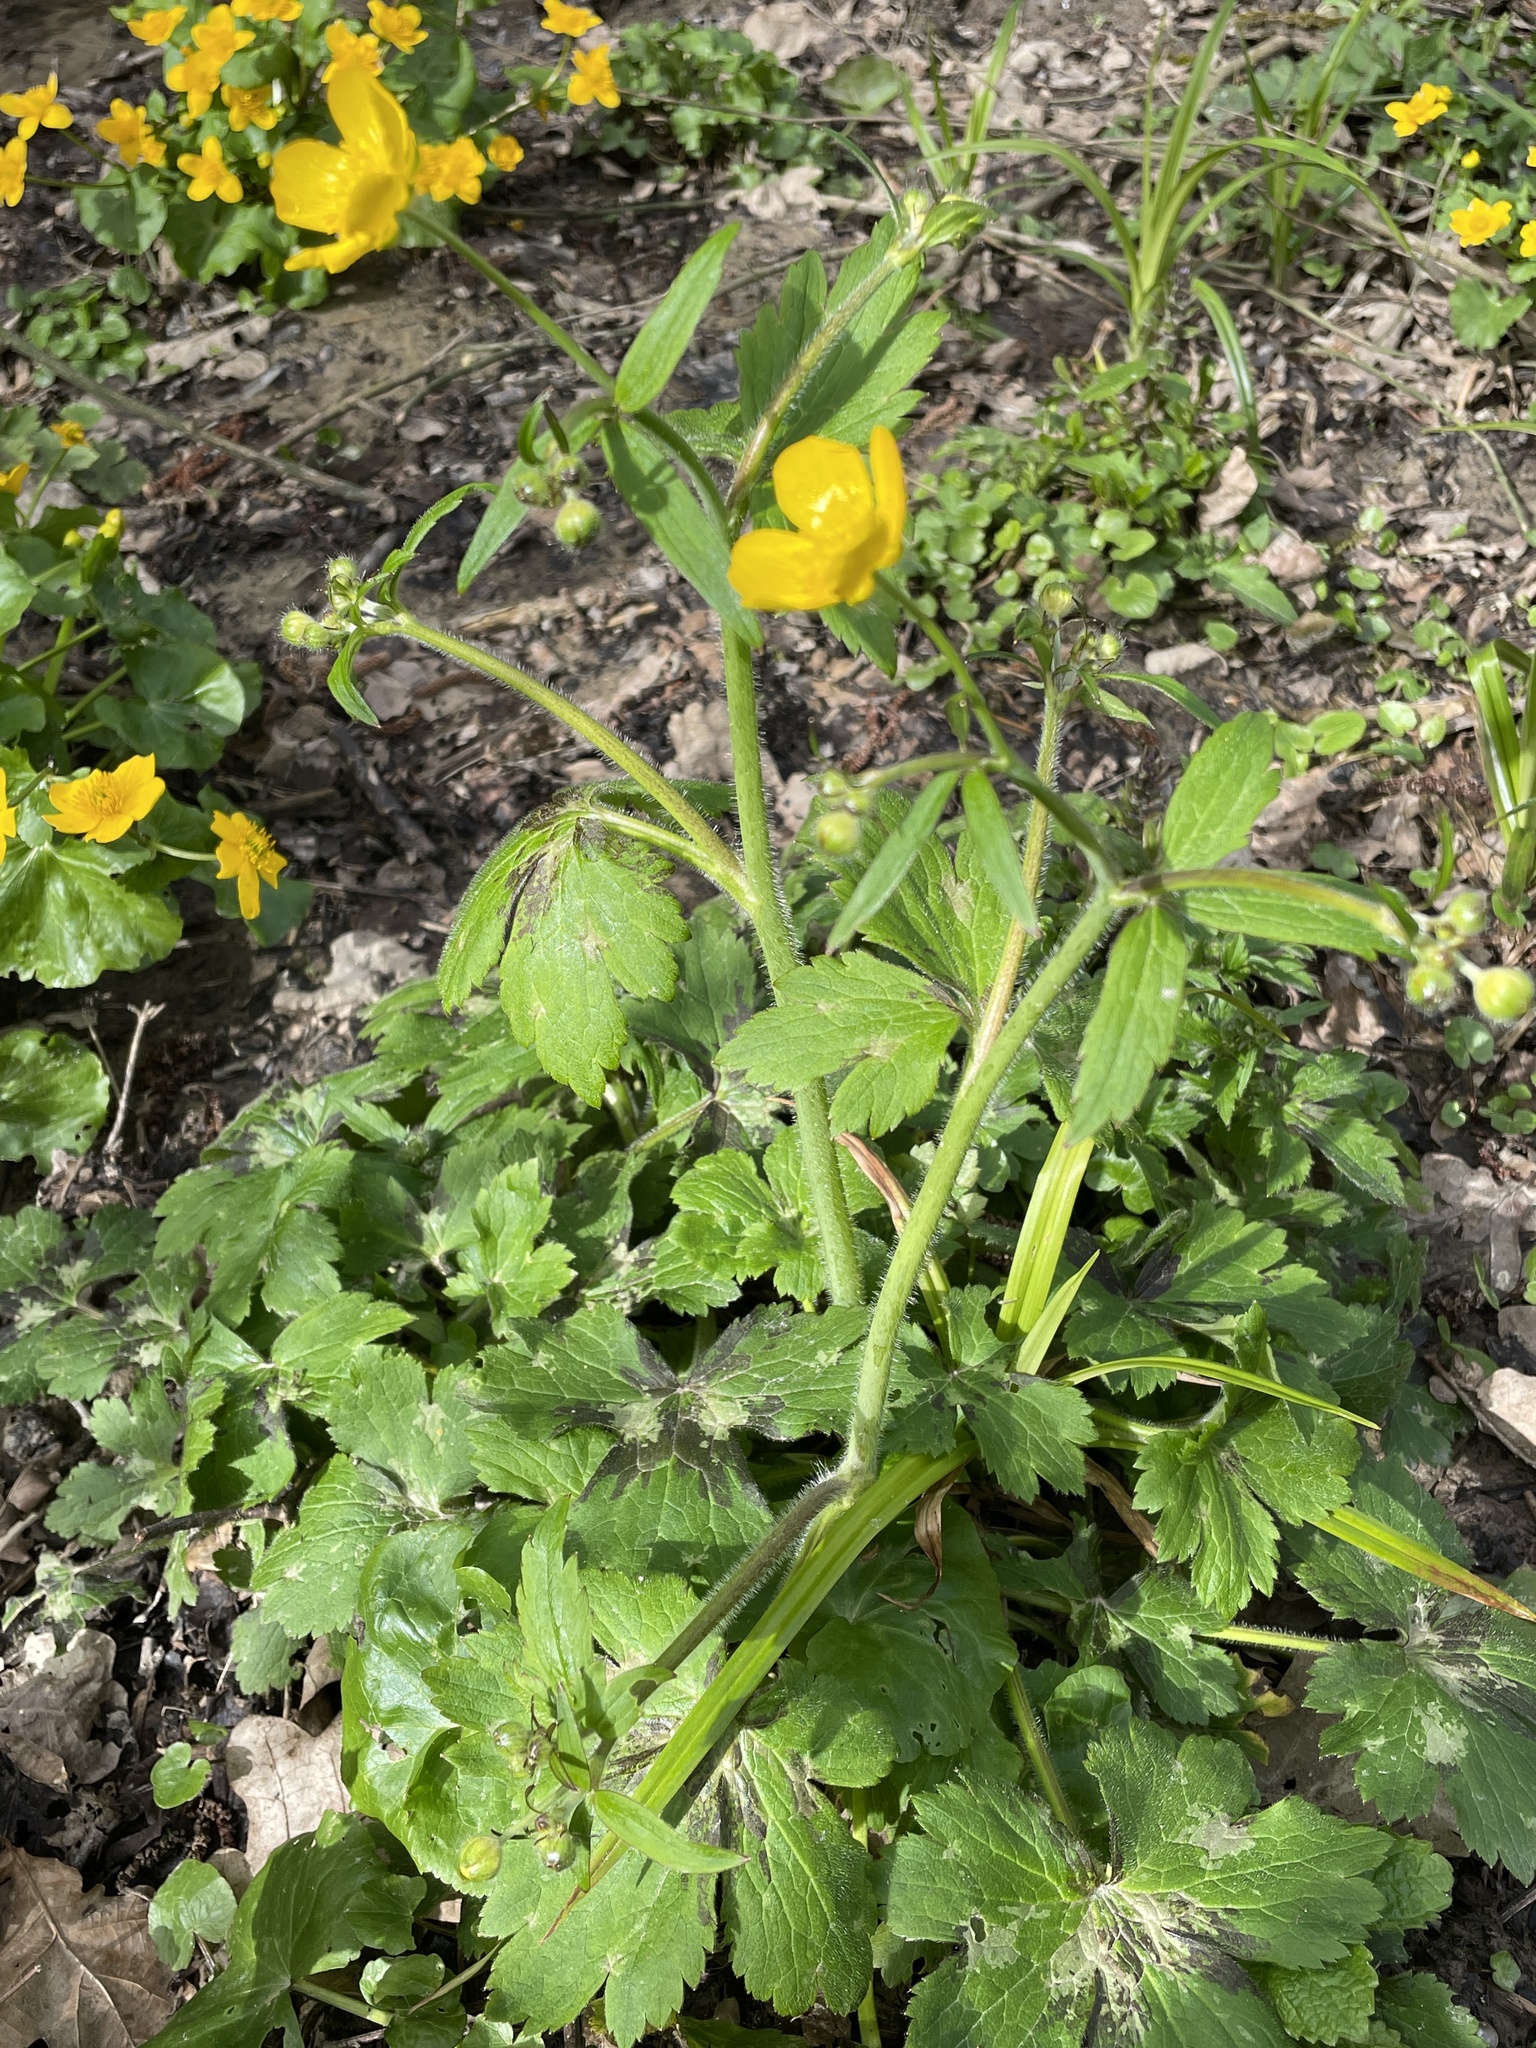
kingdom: Plantae
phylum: Tracheophyta
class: Magnoliopsida
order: Ranunculales
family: Ranunculaceae
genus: Ranunculus
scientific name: Ranunculus lanuginosus
